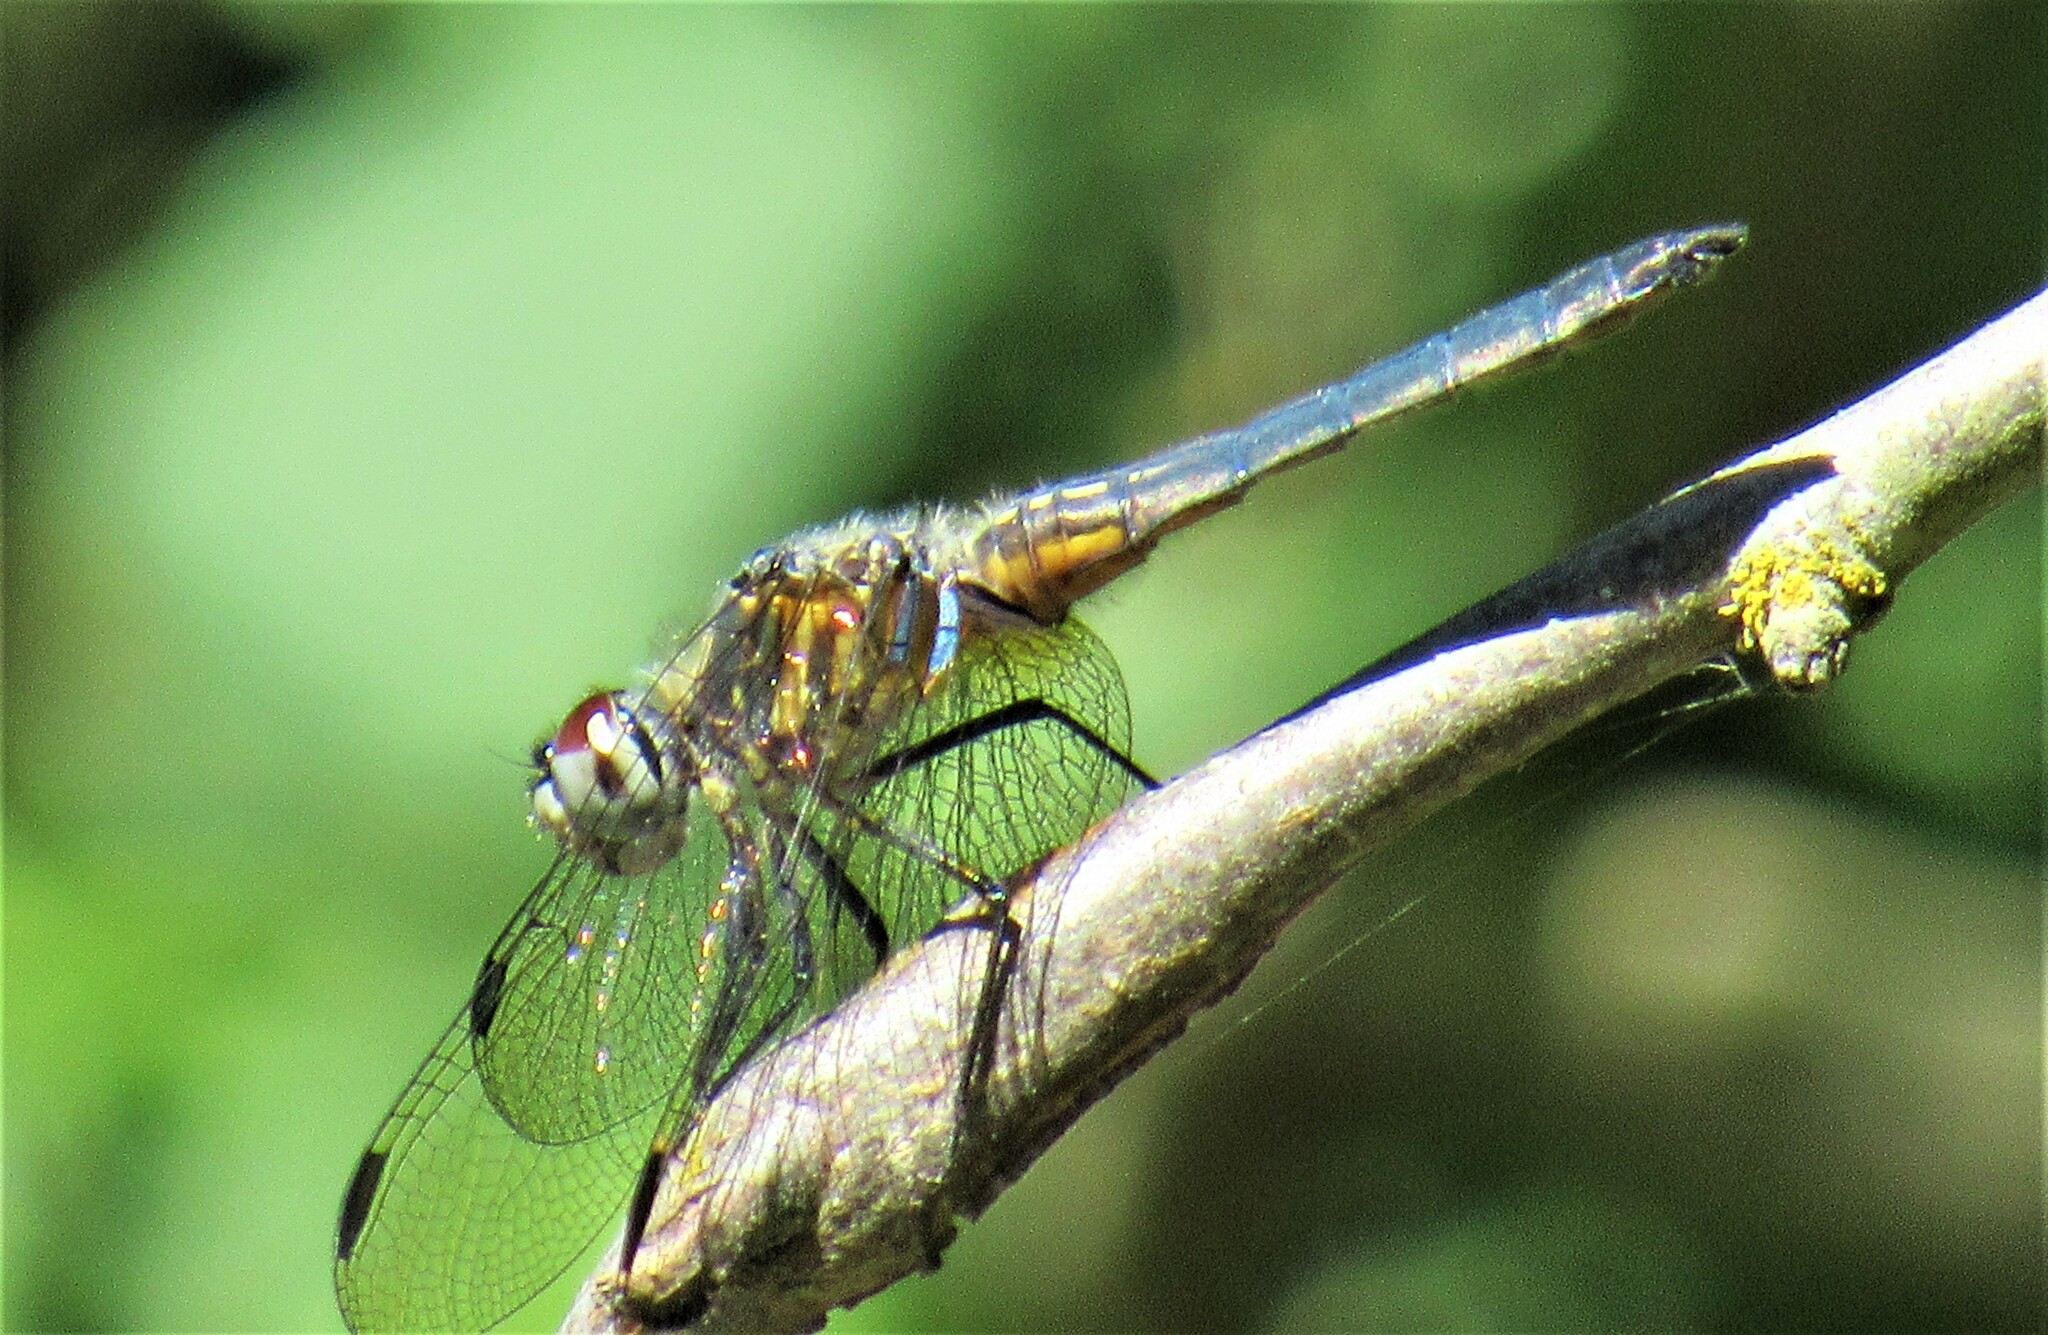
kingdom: Animalia
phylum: Arthropoda
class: Insecta
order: Odonata
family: Libellulidae
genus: Pachydiplax
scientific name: Pachydiplax longipennis
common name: Blue dasher
